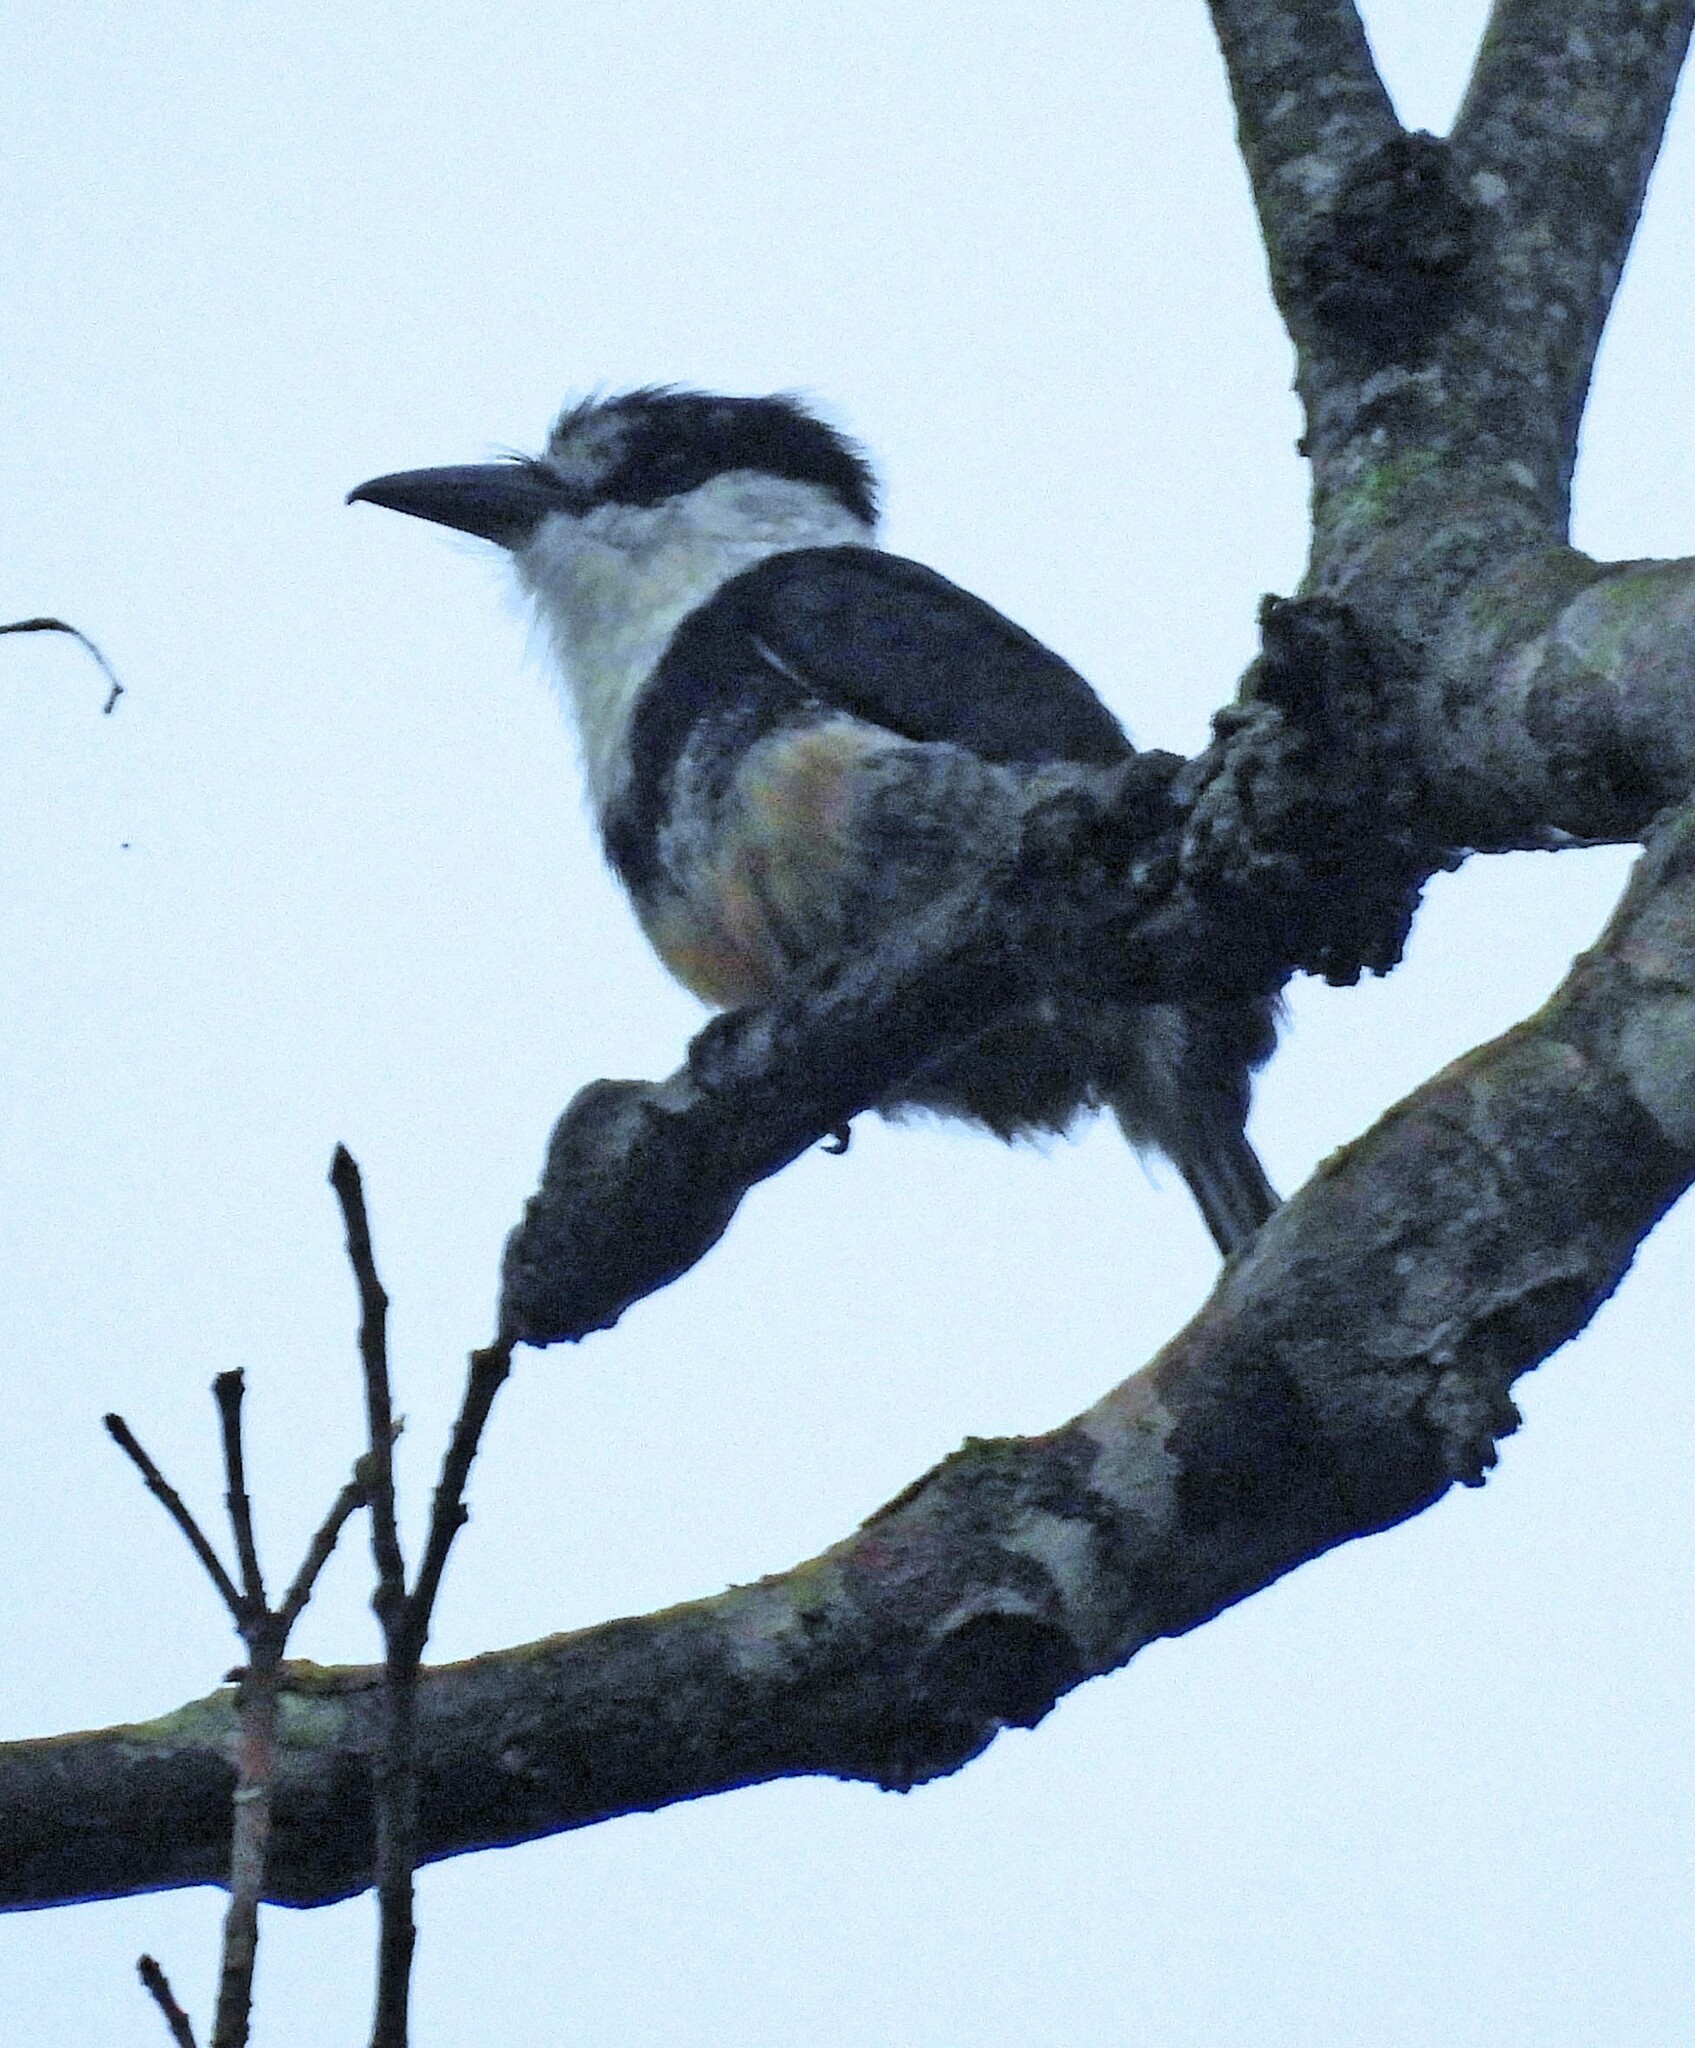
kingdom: Animalia
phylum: Chordata
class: Aves
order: Piciformes
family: Bucconidae
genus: Notharchus
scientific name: Notharchus swainsoni
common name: Buff-bellied puffbird
